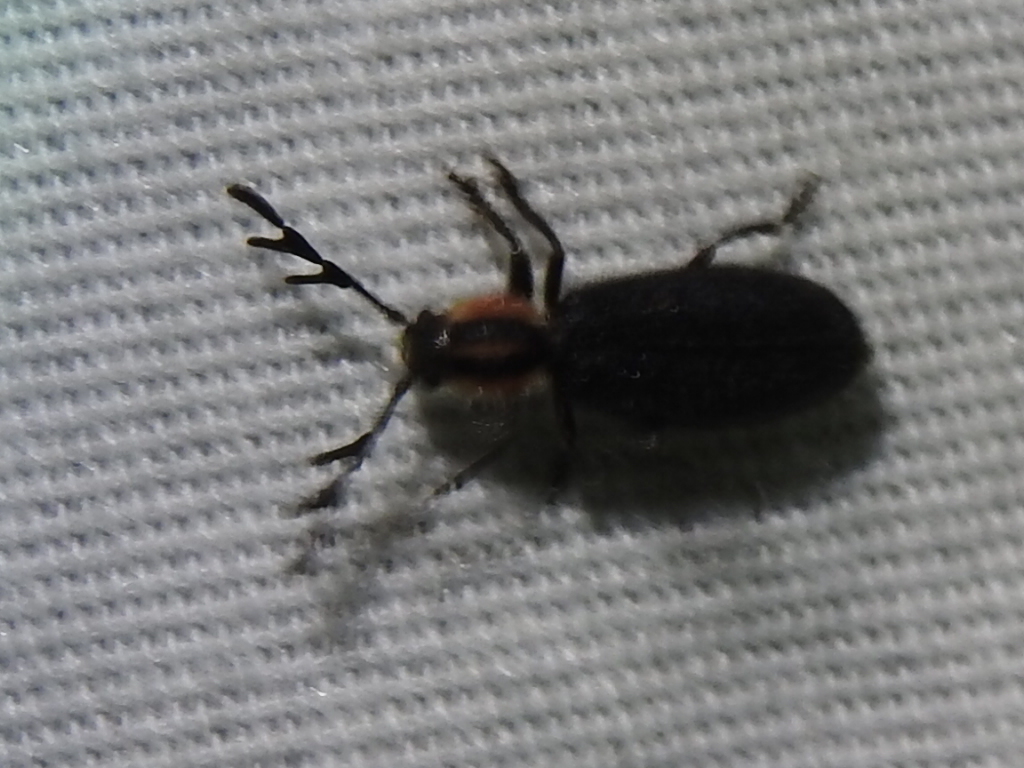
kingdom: Animalia
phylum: Arthropoda
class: Insecta
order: Coleoptera
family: Cleridae
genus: Chariessa
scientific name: Chariessa pilosa
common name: Pilose checkered beetle
